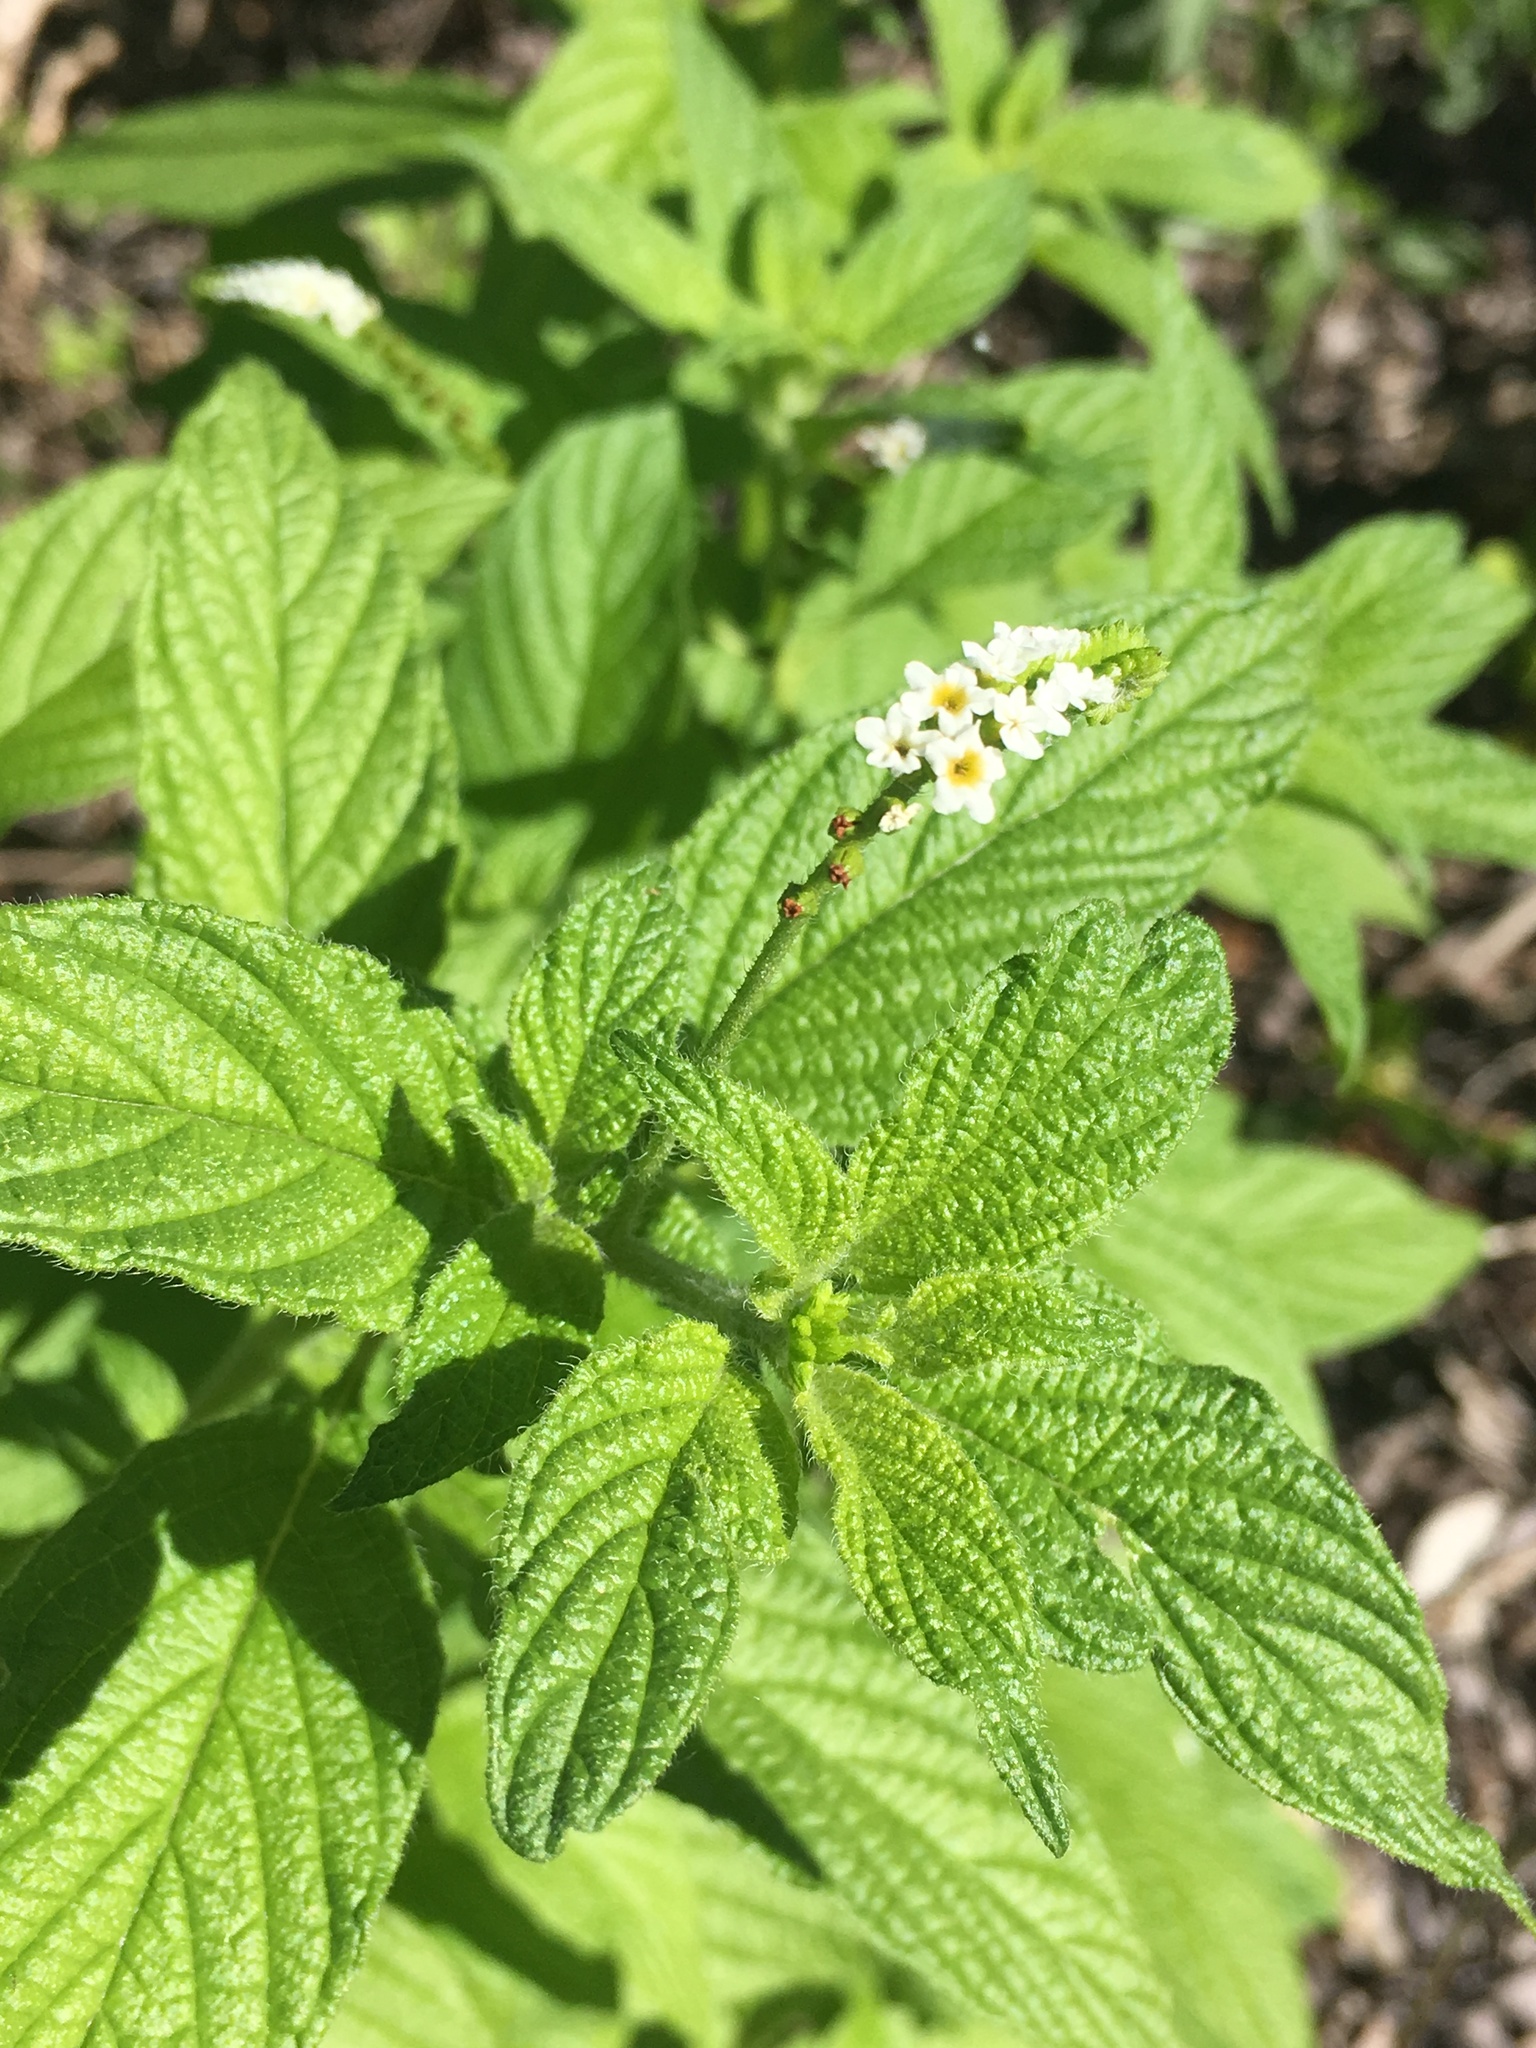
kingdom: Plantae
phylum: Tracheophyta
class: Magnoliopsida
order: Boraginales
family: Heliotropiaceae
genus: Heliotropium
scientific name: Heliotropium angiospermum
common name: Eye bright
